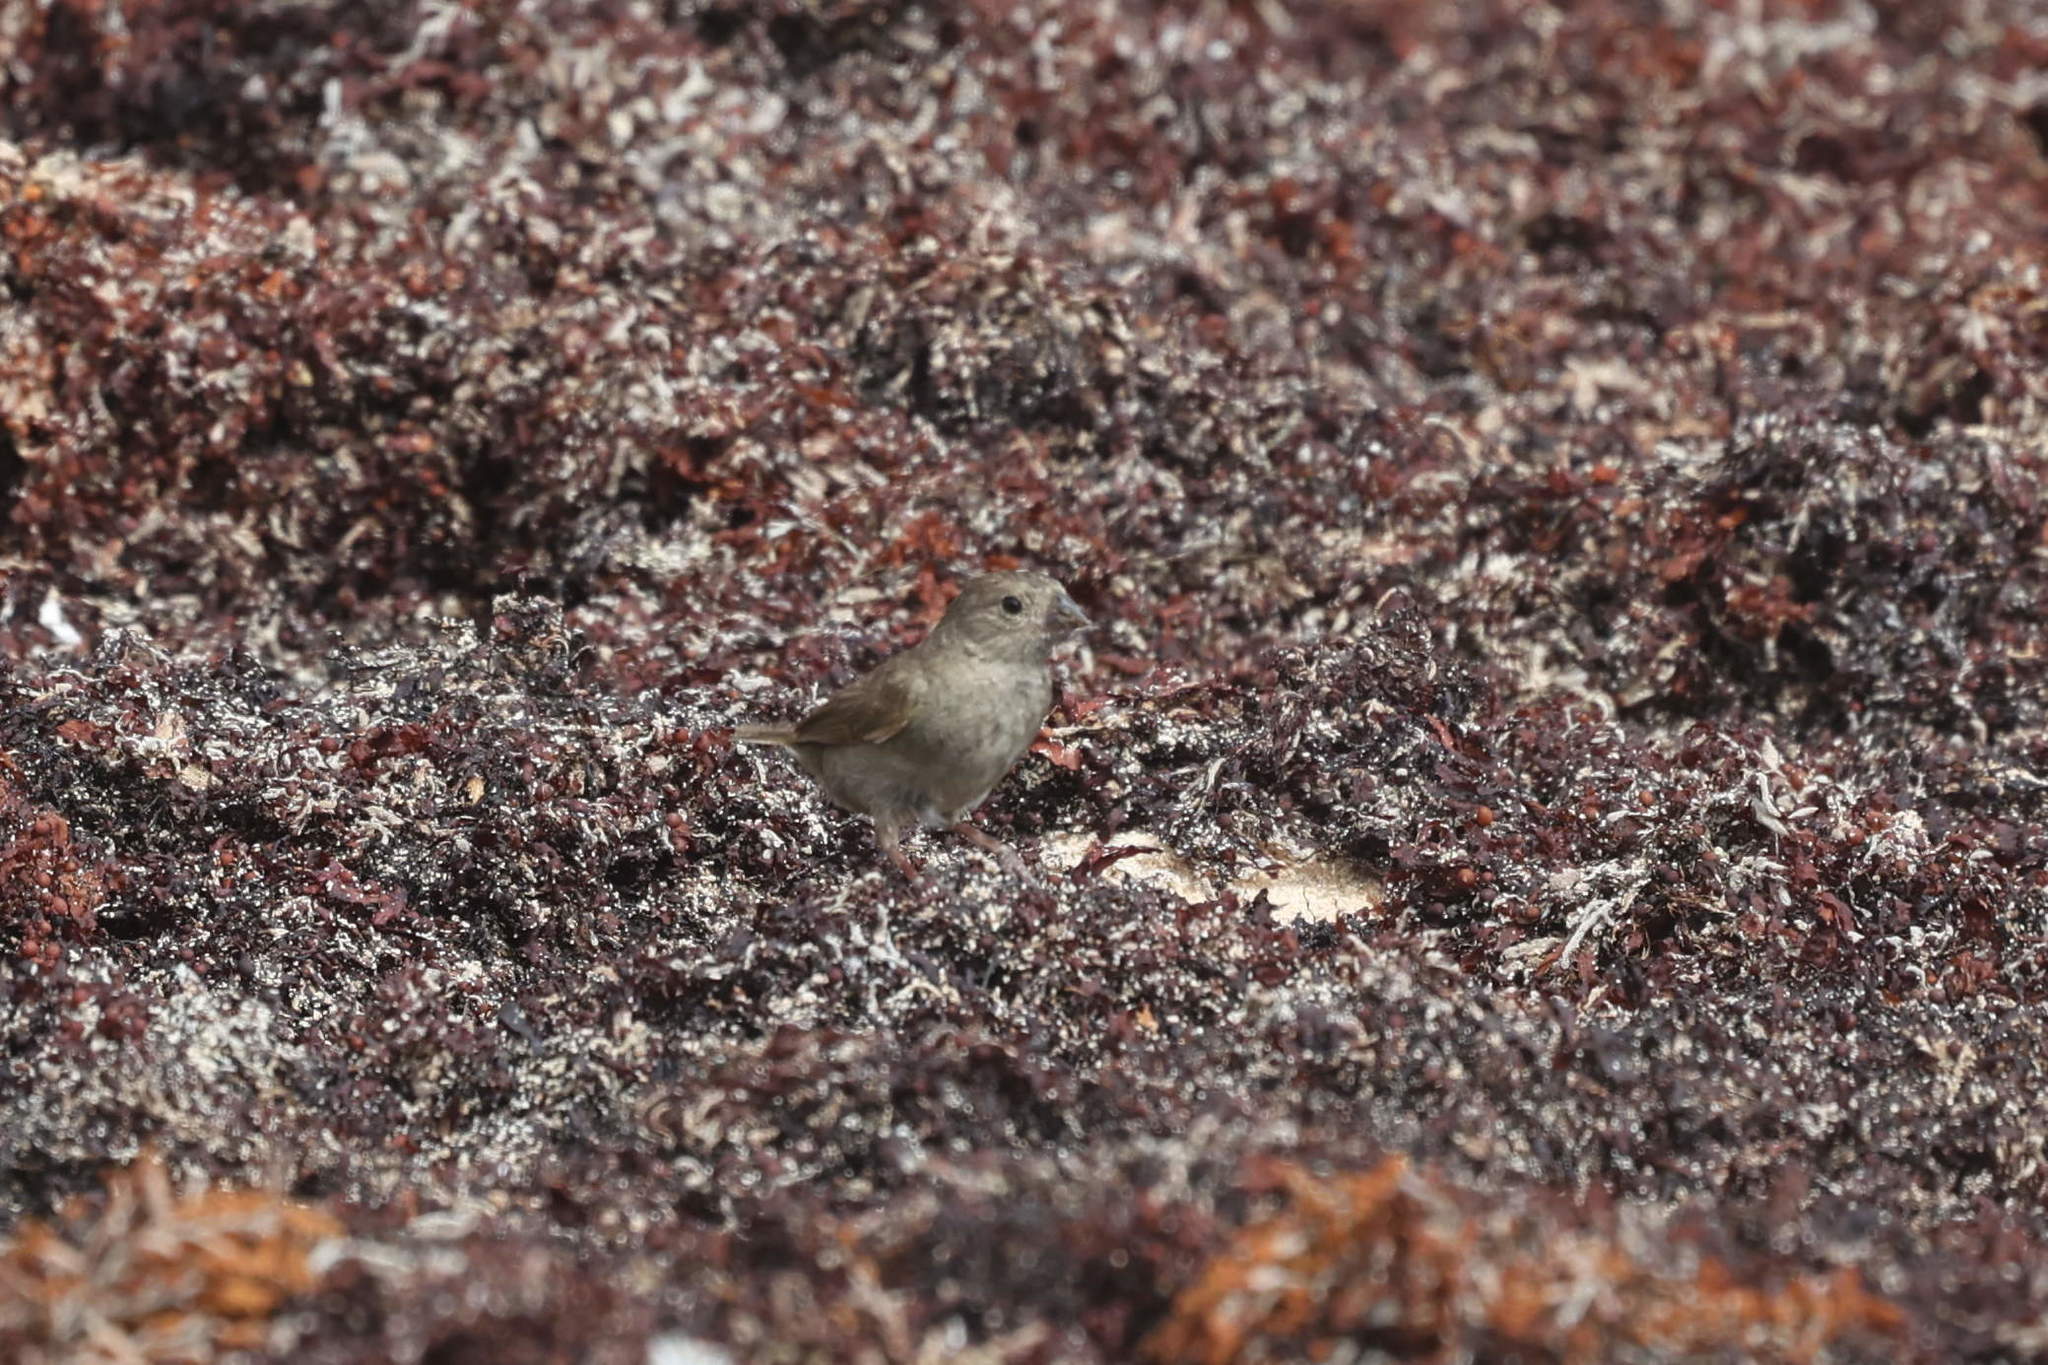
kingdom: Animalia
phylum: Chordata
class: Aves
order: Passeriformes
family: Thraupidae
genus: Melanospiza
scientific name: Melanospiza bicolor
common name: Black-faced grassquit
